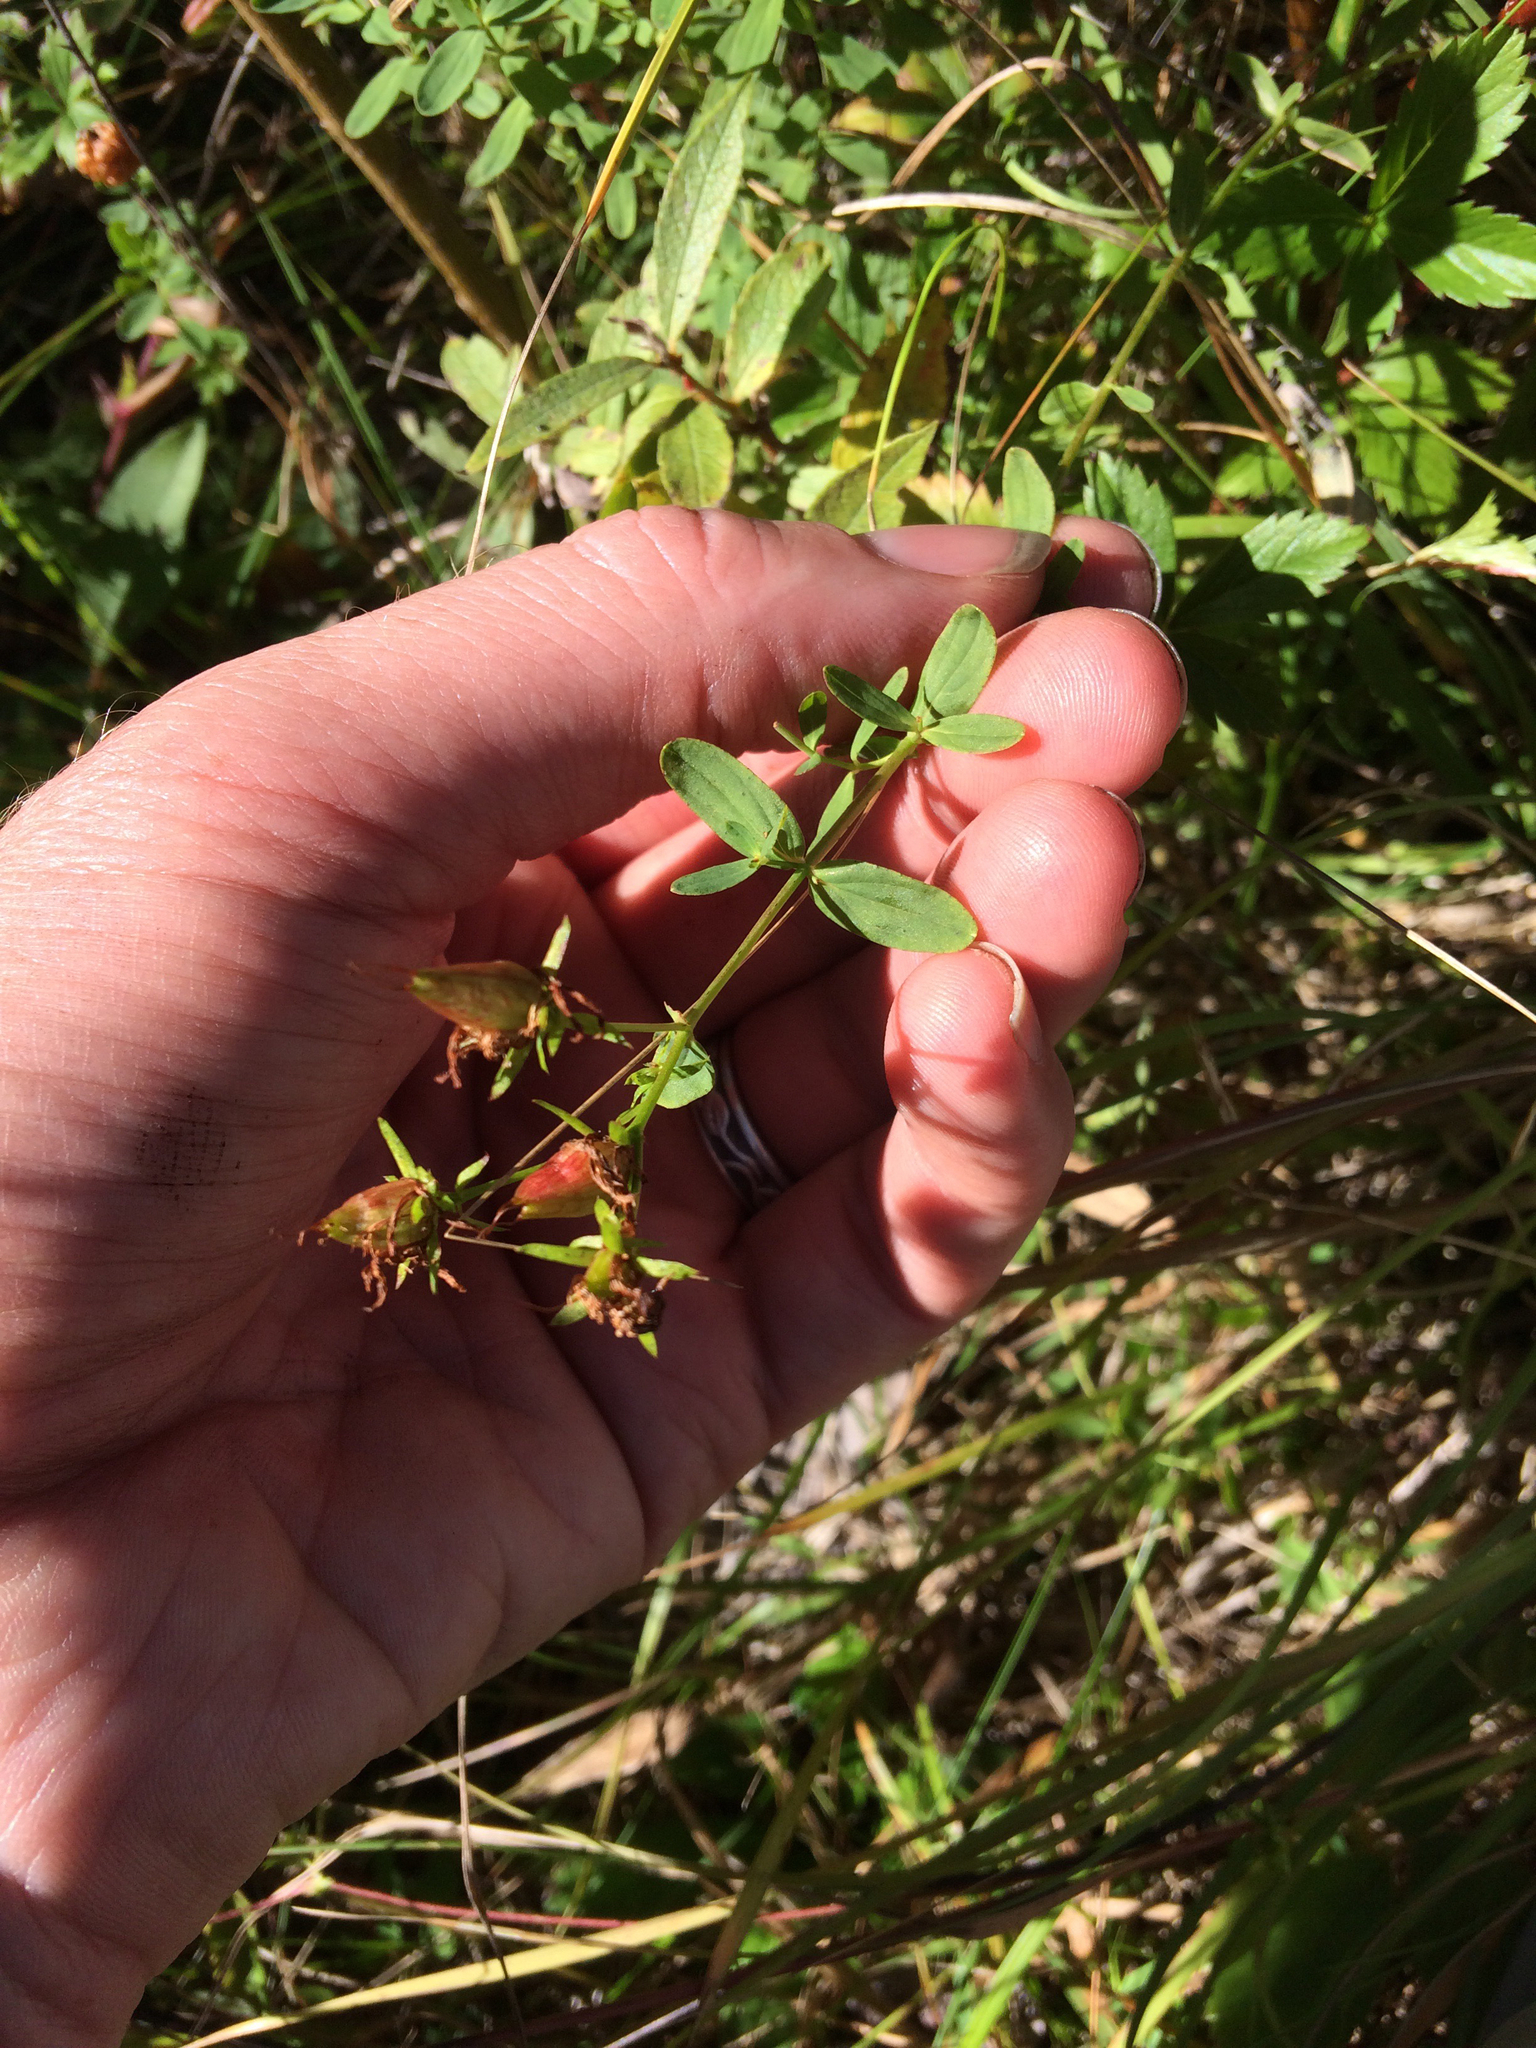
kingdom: Plantae
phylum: Tracheophyta
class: Magnoliopsida
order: Malpighiales
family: Hypericaceae
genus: Hypericum
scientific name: Hypericum perforatum
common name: Common st. johnswort
